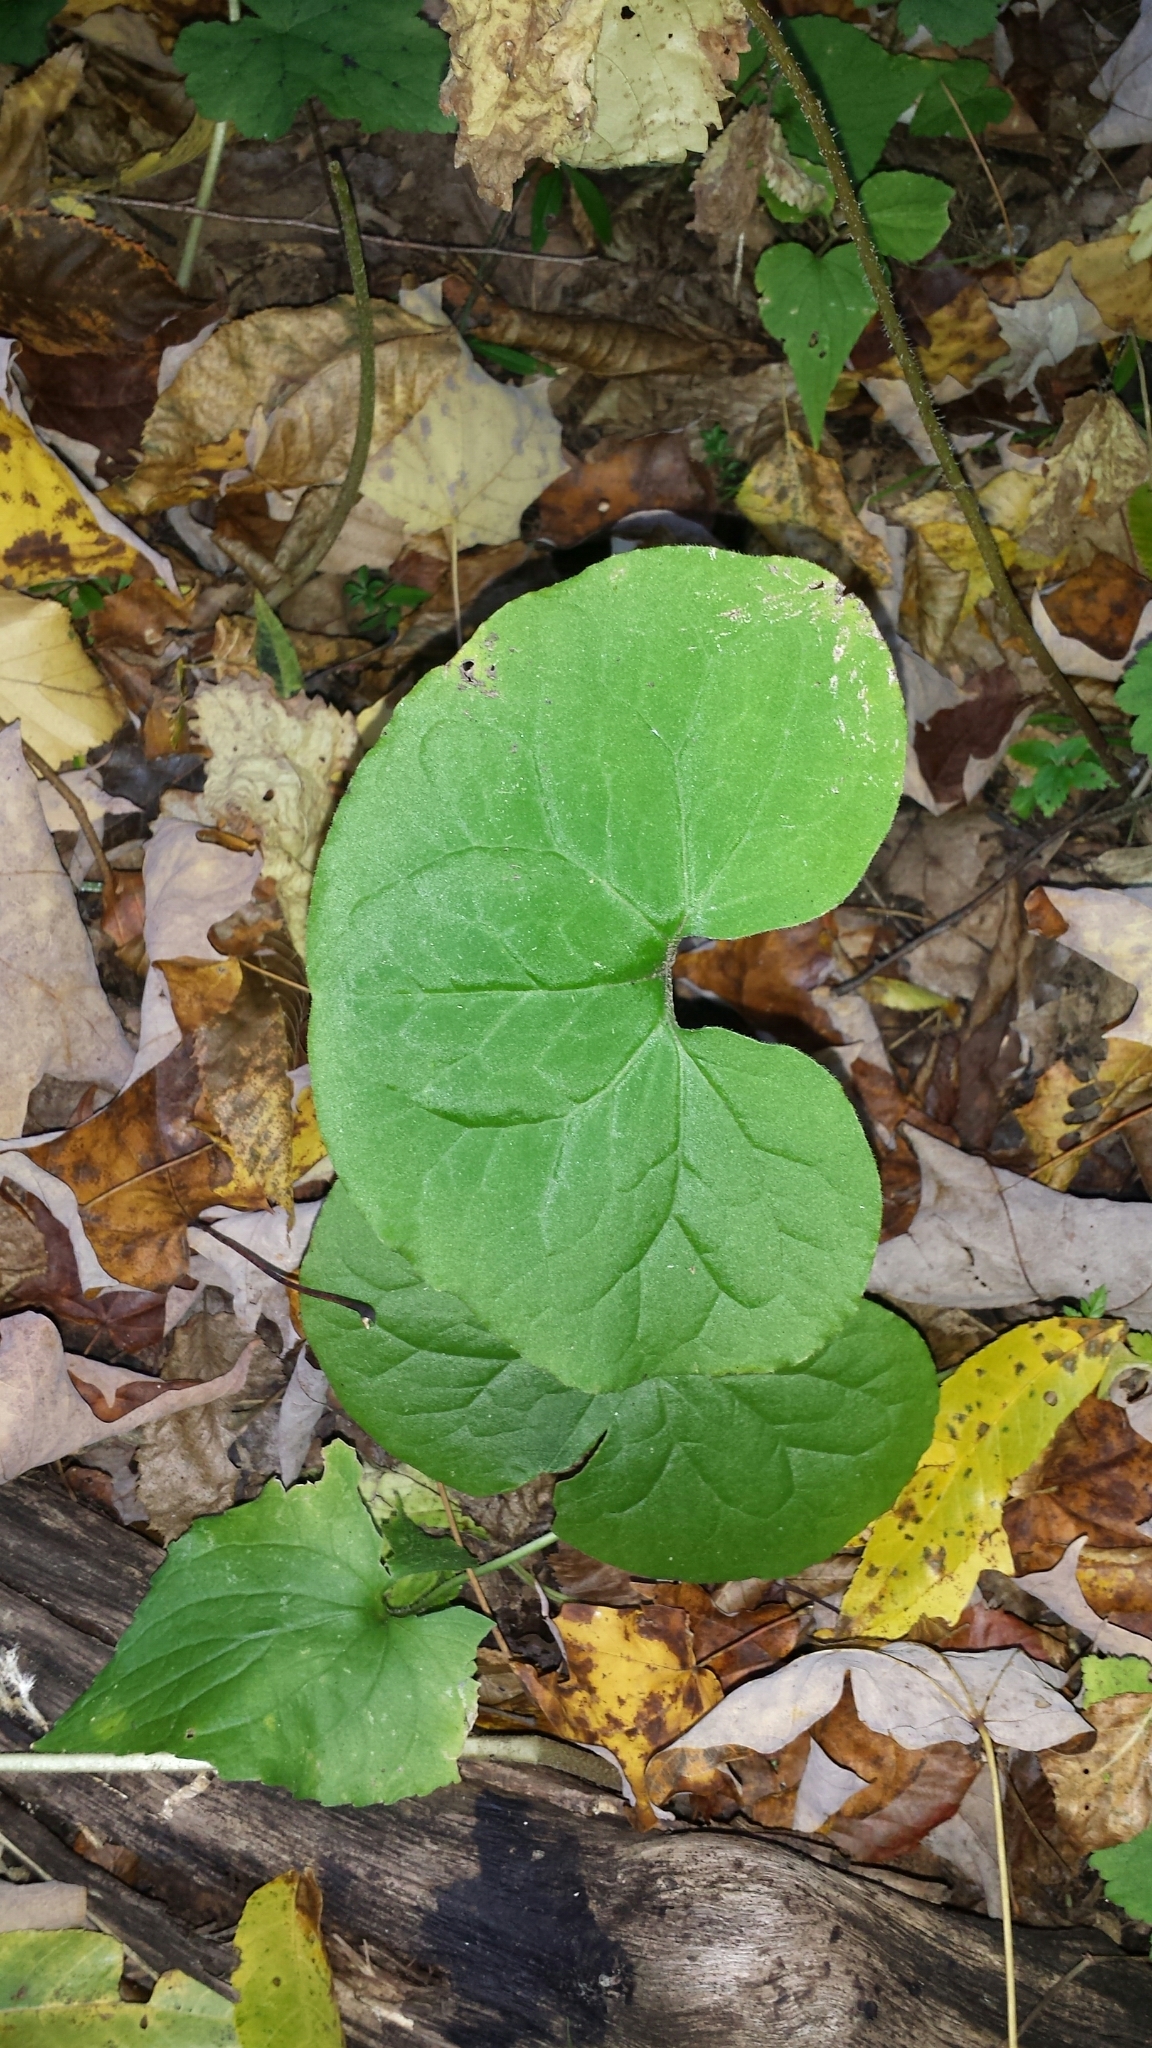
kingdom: Plantae
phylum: Tracheophyta
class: Magnoliopsida
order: Piperales
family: Aristolochiaceae
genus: Asarum
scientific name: Asarum canadense
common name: Wild ginger
